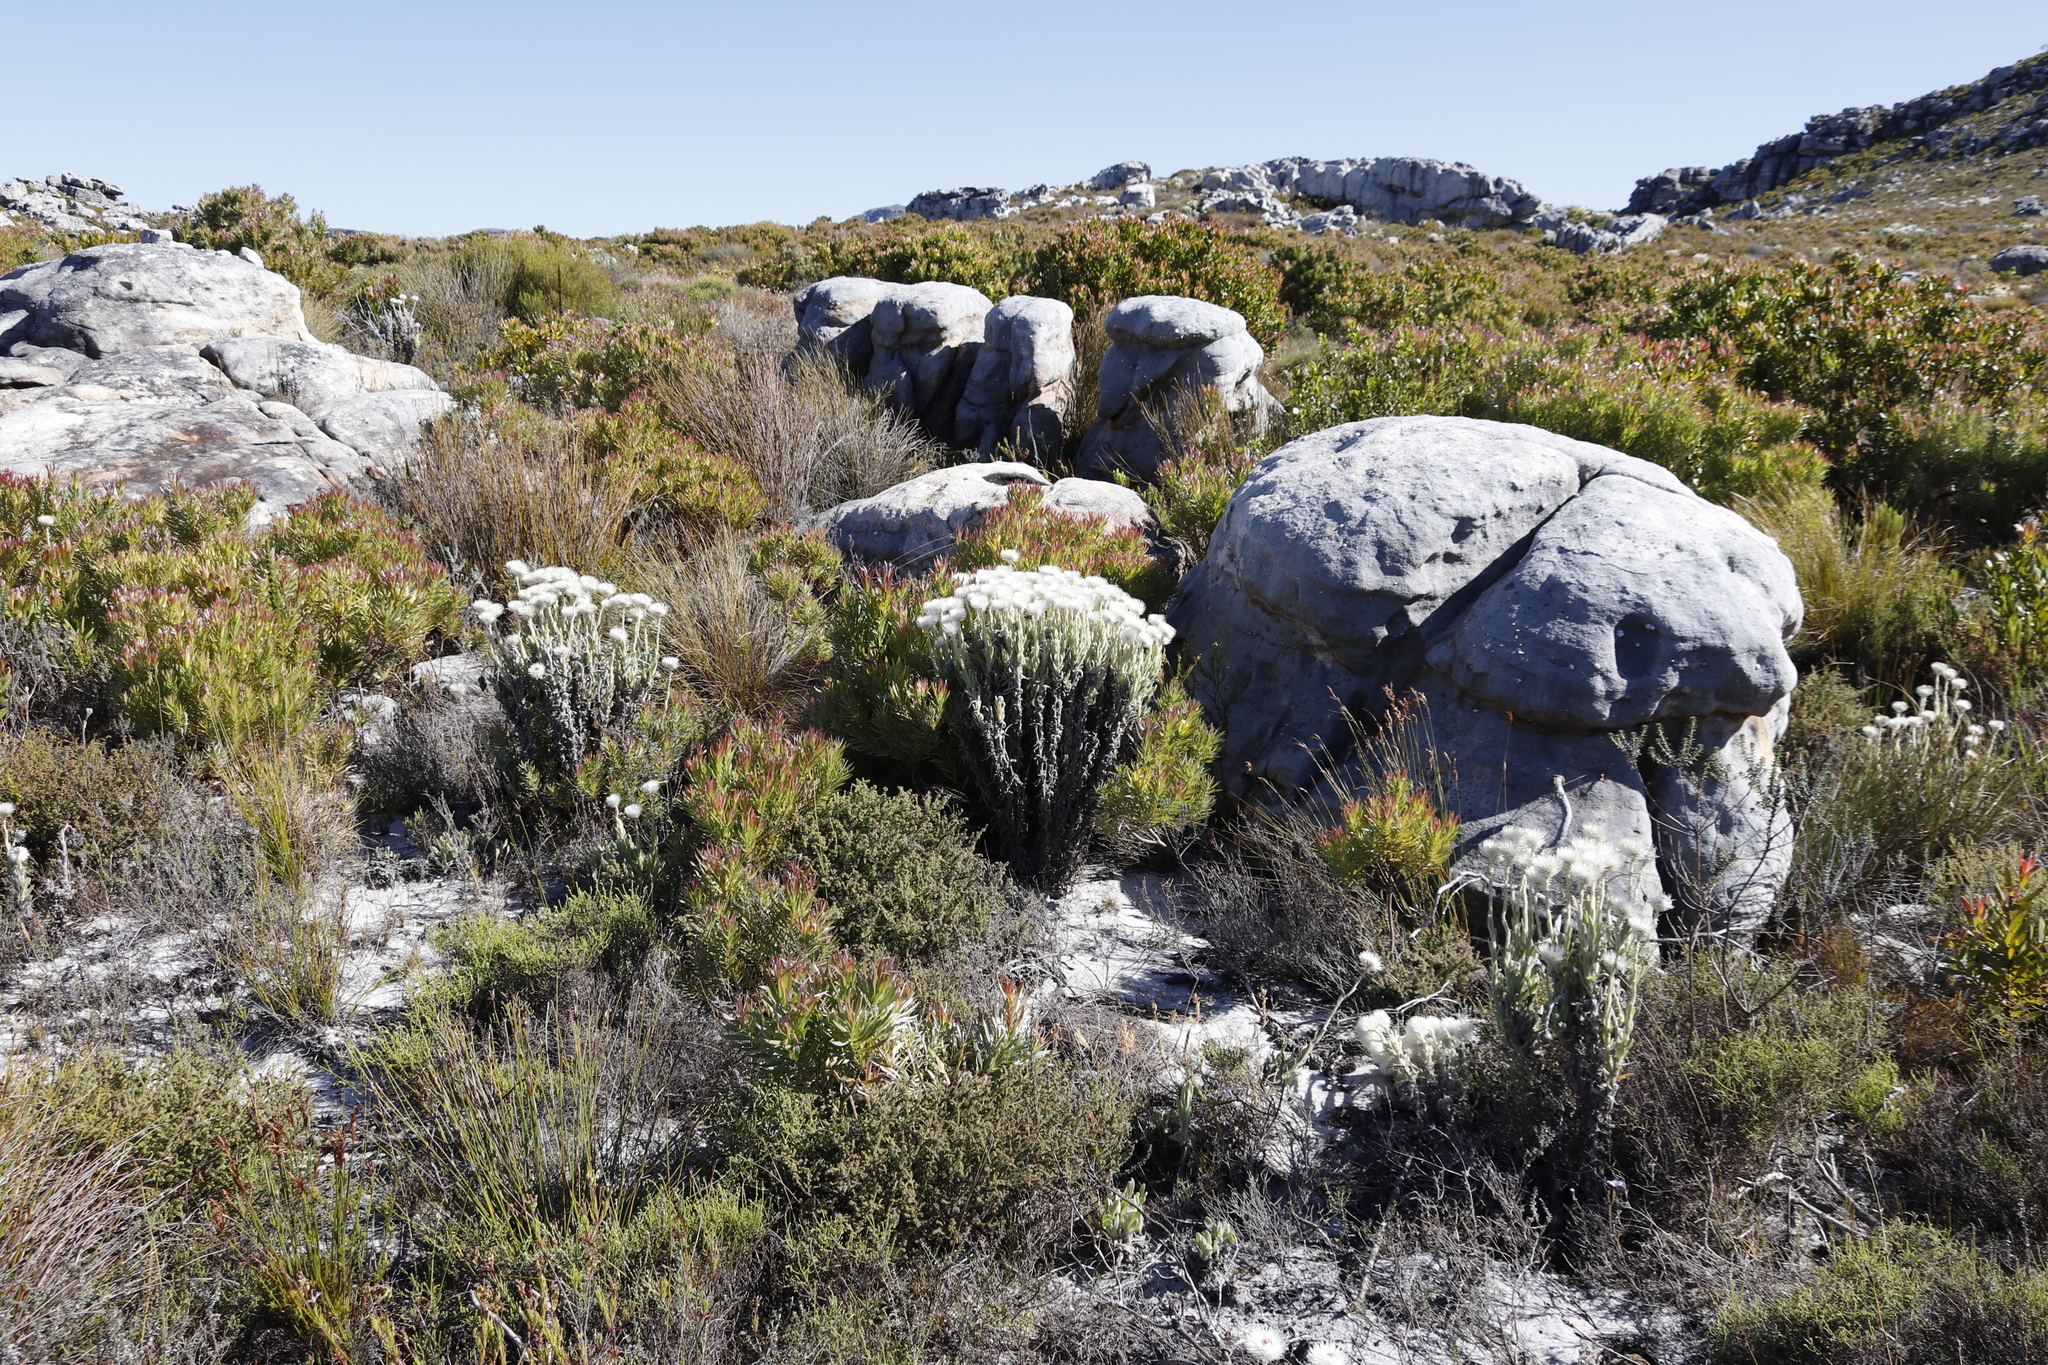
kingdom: Plantae
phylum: Tracheophyta
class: Magnoliopsida
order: Asterales
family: Asteraceae
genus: Syncarpha
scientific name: Syncarpha vestita
